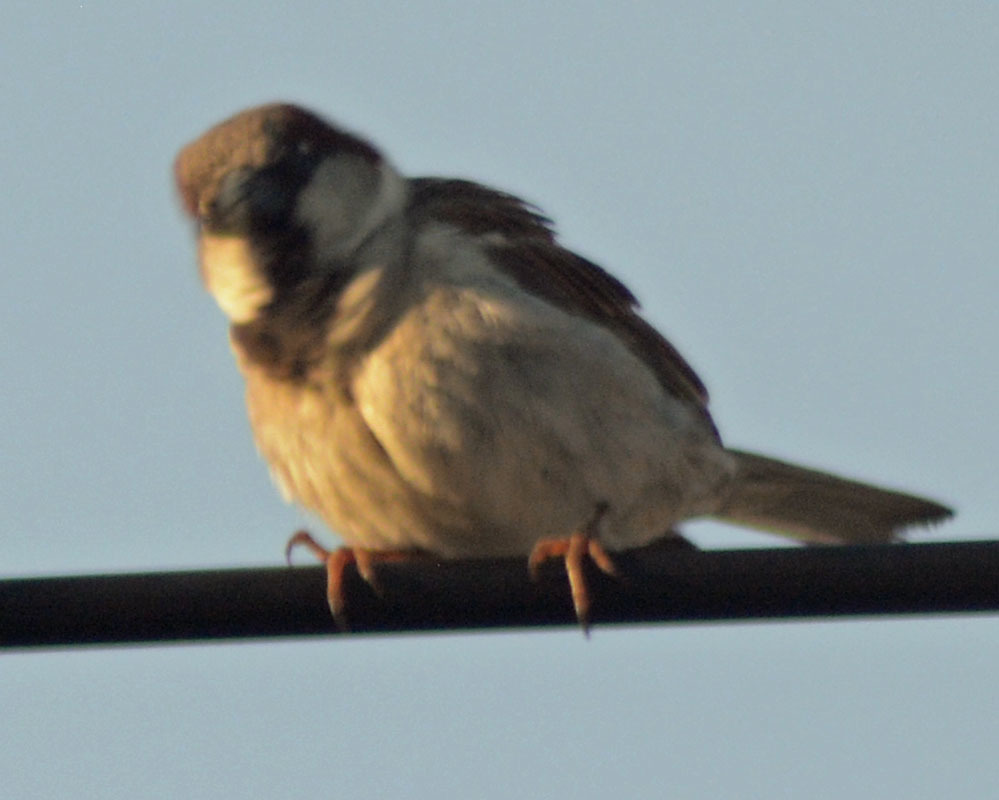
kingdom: Animalia
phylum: Chordata
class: Aves
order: Passeriformes
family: Passeridae
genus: Passer
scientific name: Passer domesticus
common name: House sparrow
